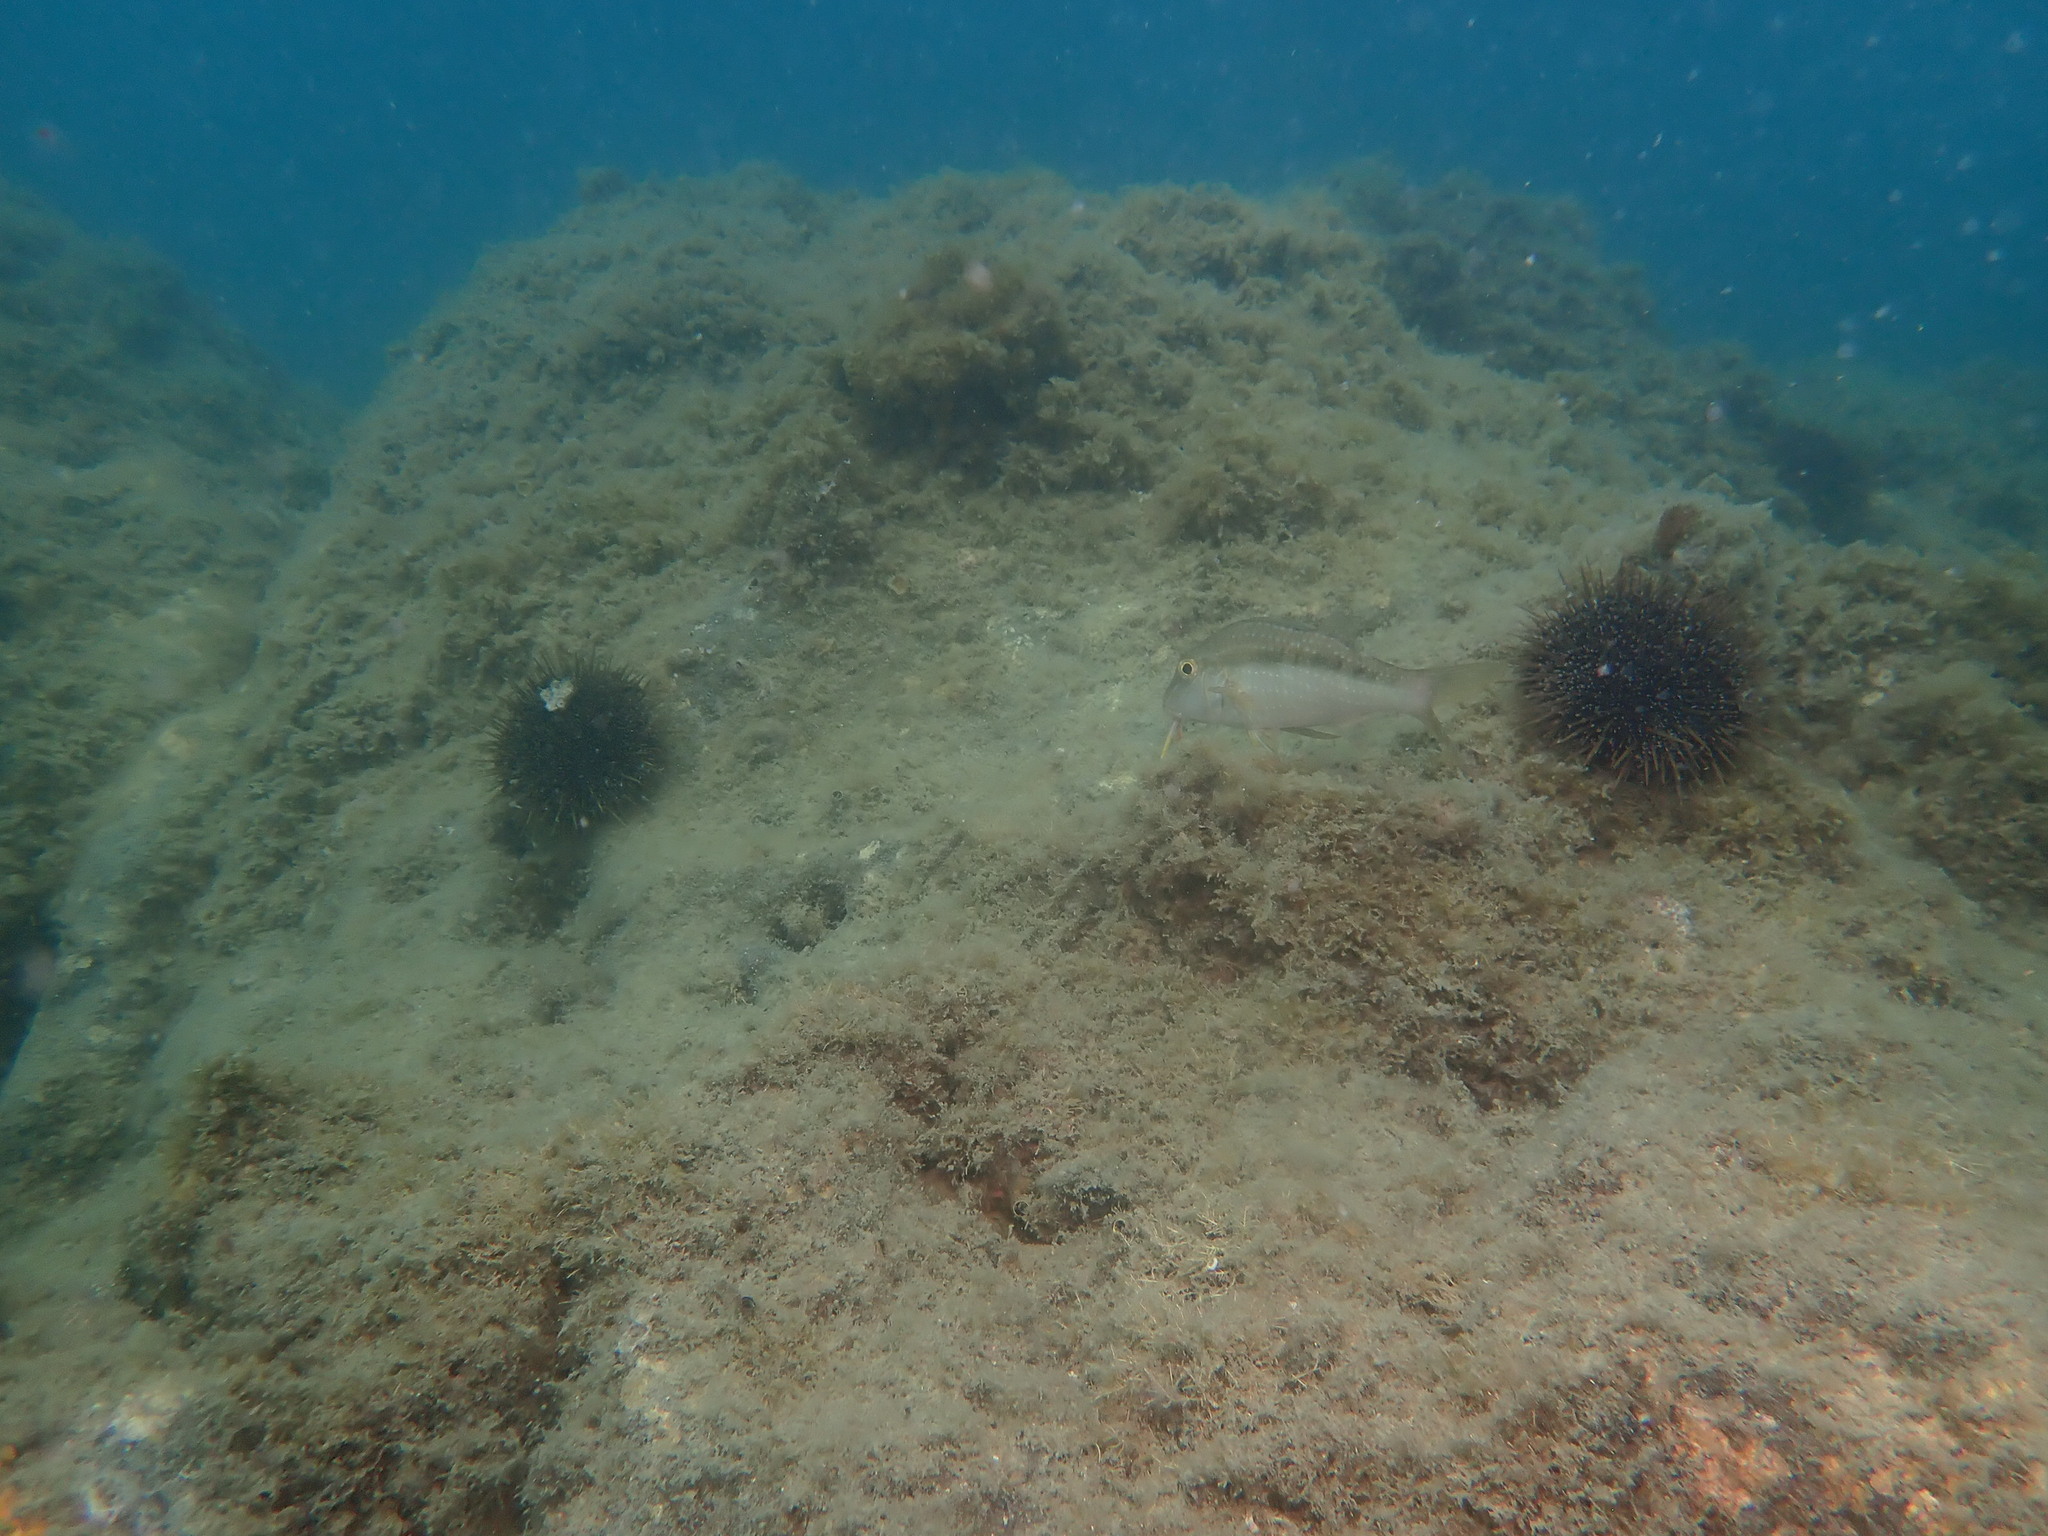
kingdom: Animalia
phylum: Chordata
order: Perciformes
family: Mullidae
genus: Upeneichthys
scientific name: Upeneichthys lineatus
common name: Red mullet
